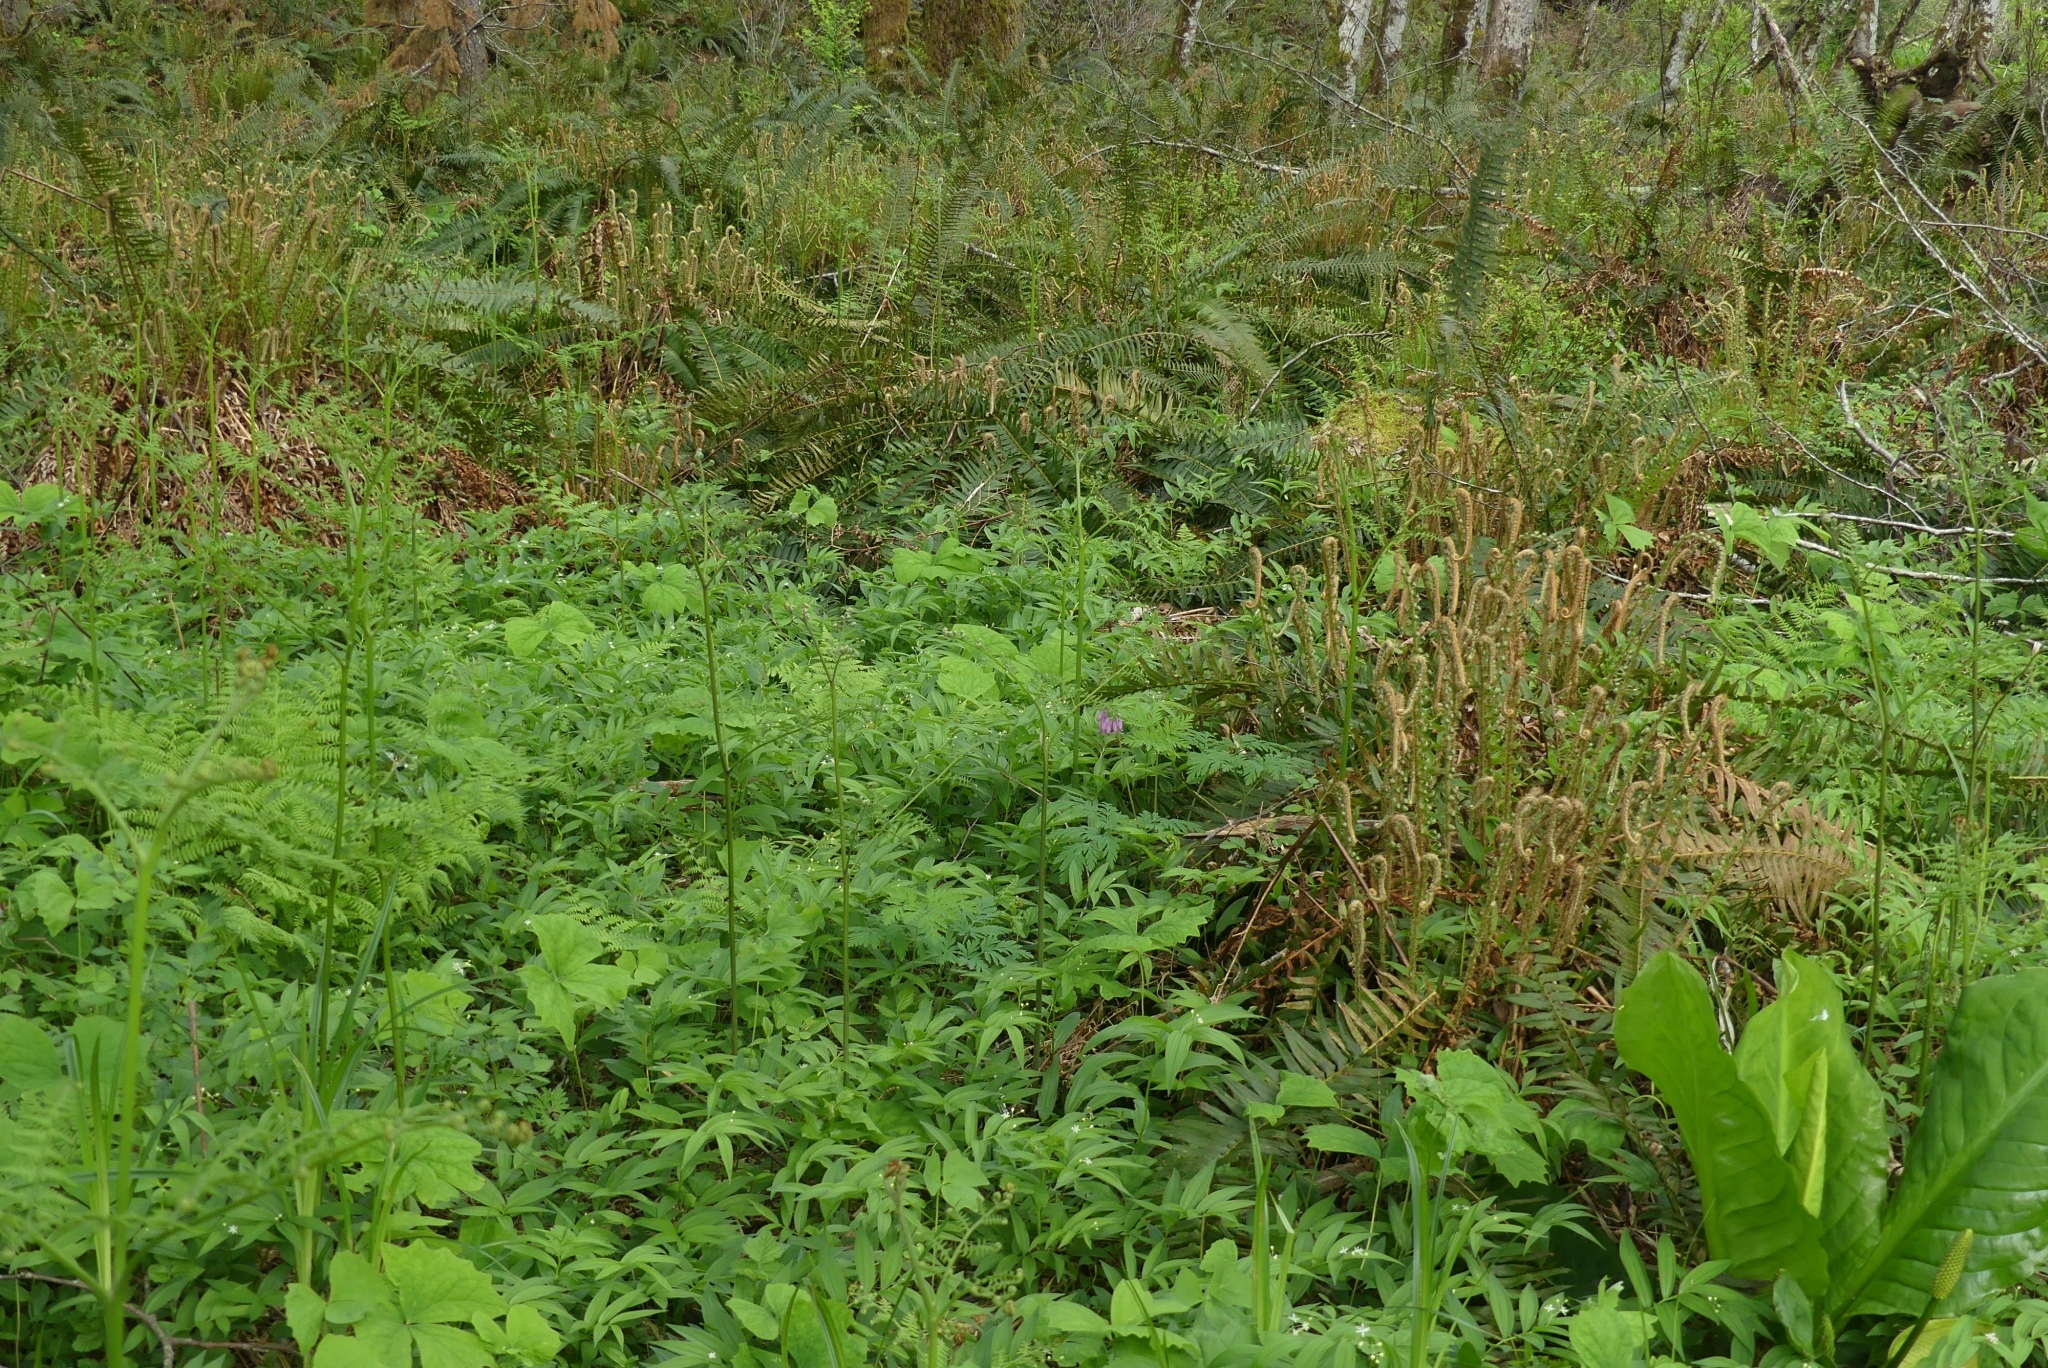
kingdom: Plantae
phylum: Tracheophyta
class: Magnoliopsida
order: Ranunculales
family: Papaveraceae
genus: Dicentra
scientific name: Dicentra formosa
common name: Bleeding-heart
